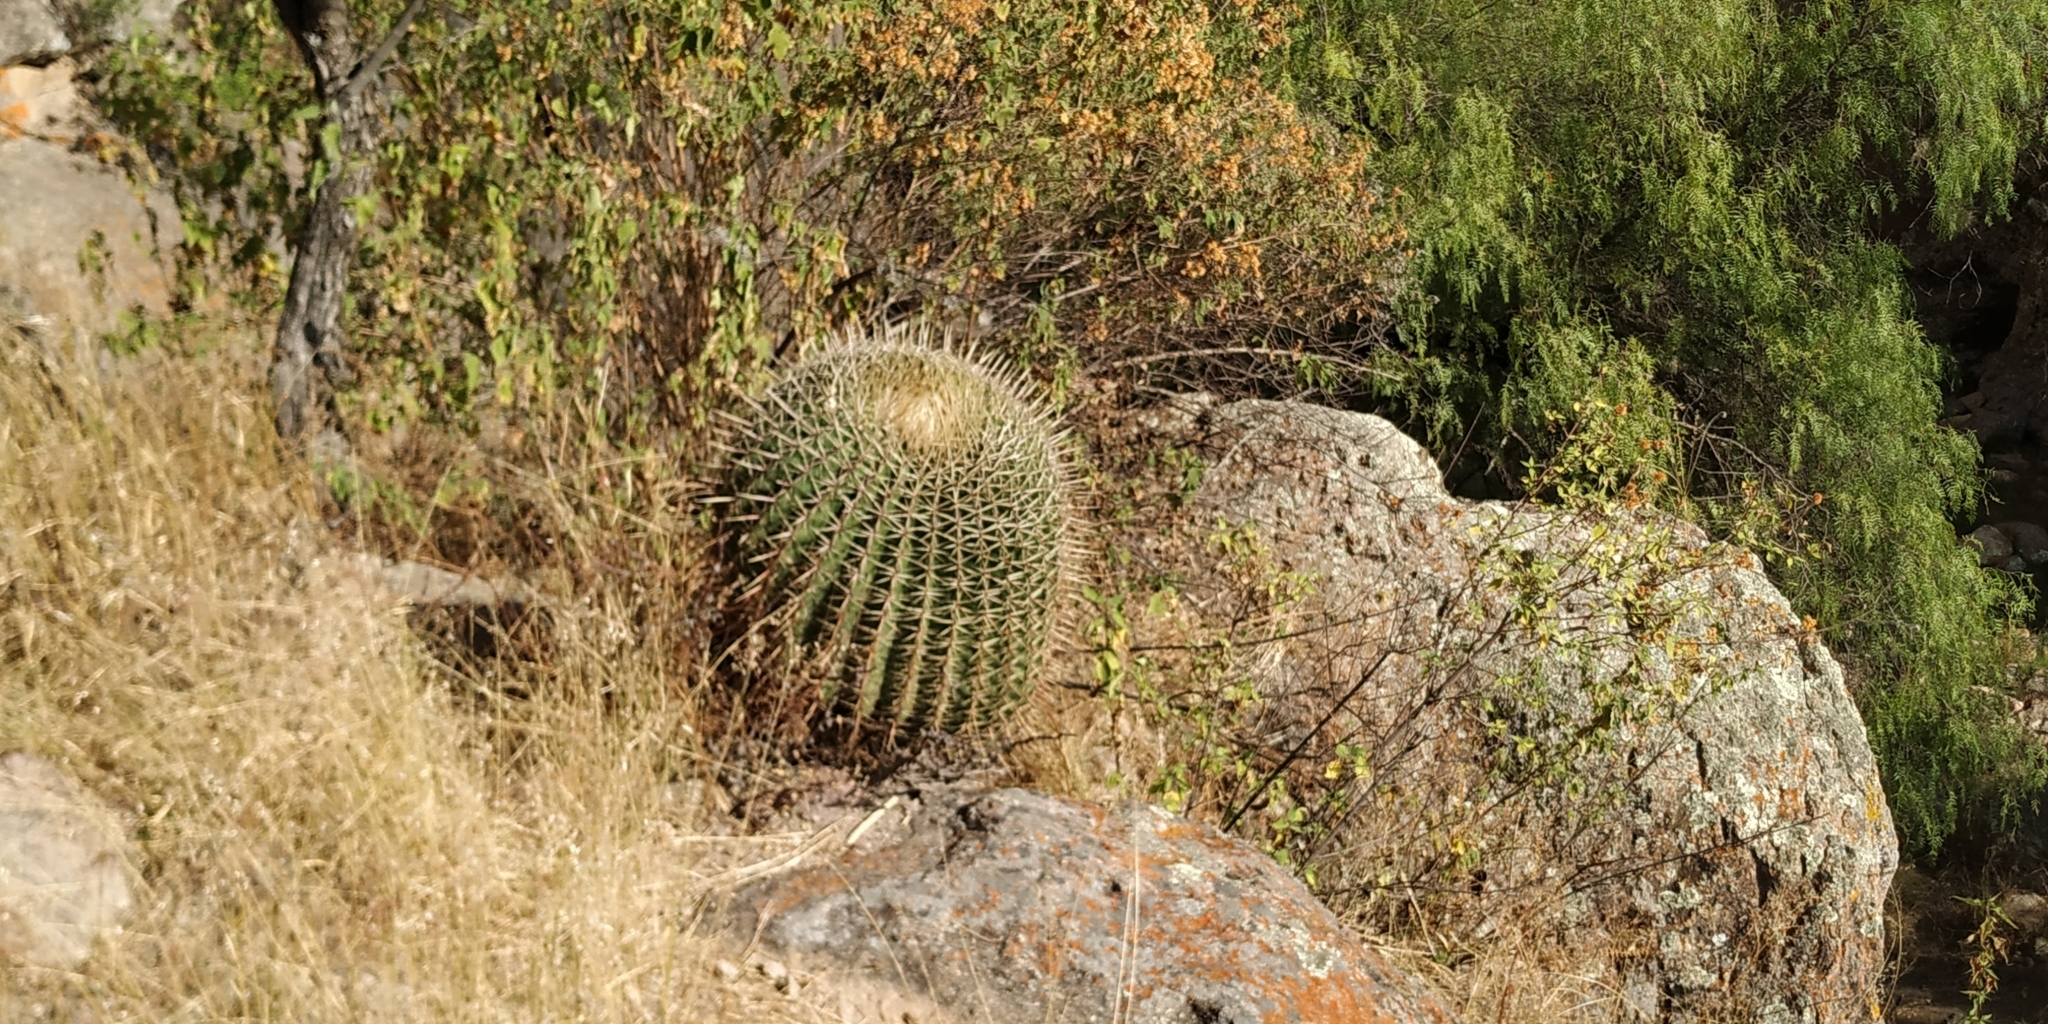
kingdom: Plantae
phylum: Tracheophyta
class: Magnoliopsida
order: Caryophyllales
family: Cactaceae
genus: Bisnaga
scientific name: Bisnaga histrix
